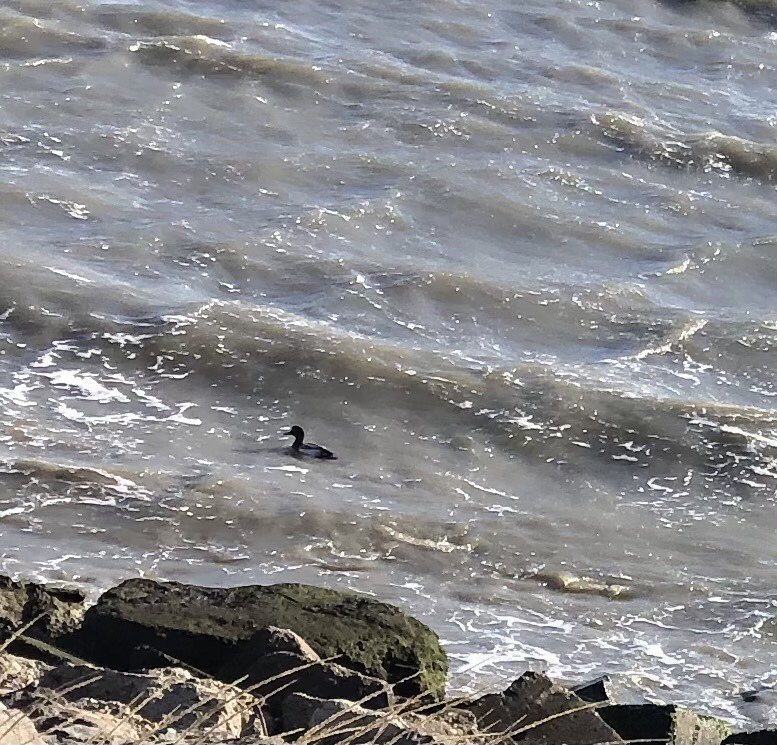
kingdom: Animalia
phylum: Chordata
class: Aves
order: Anseriformes
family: Anatidae
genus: Aythya
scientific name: Aythya marila
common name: Greater scaup
